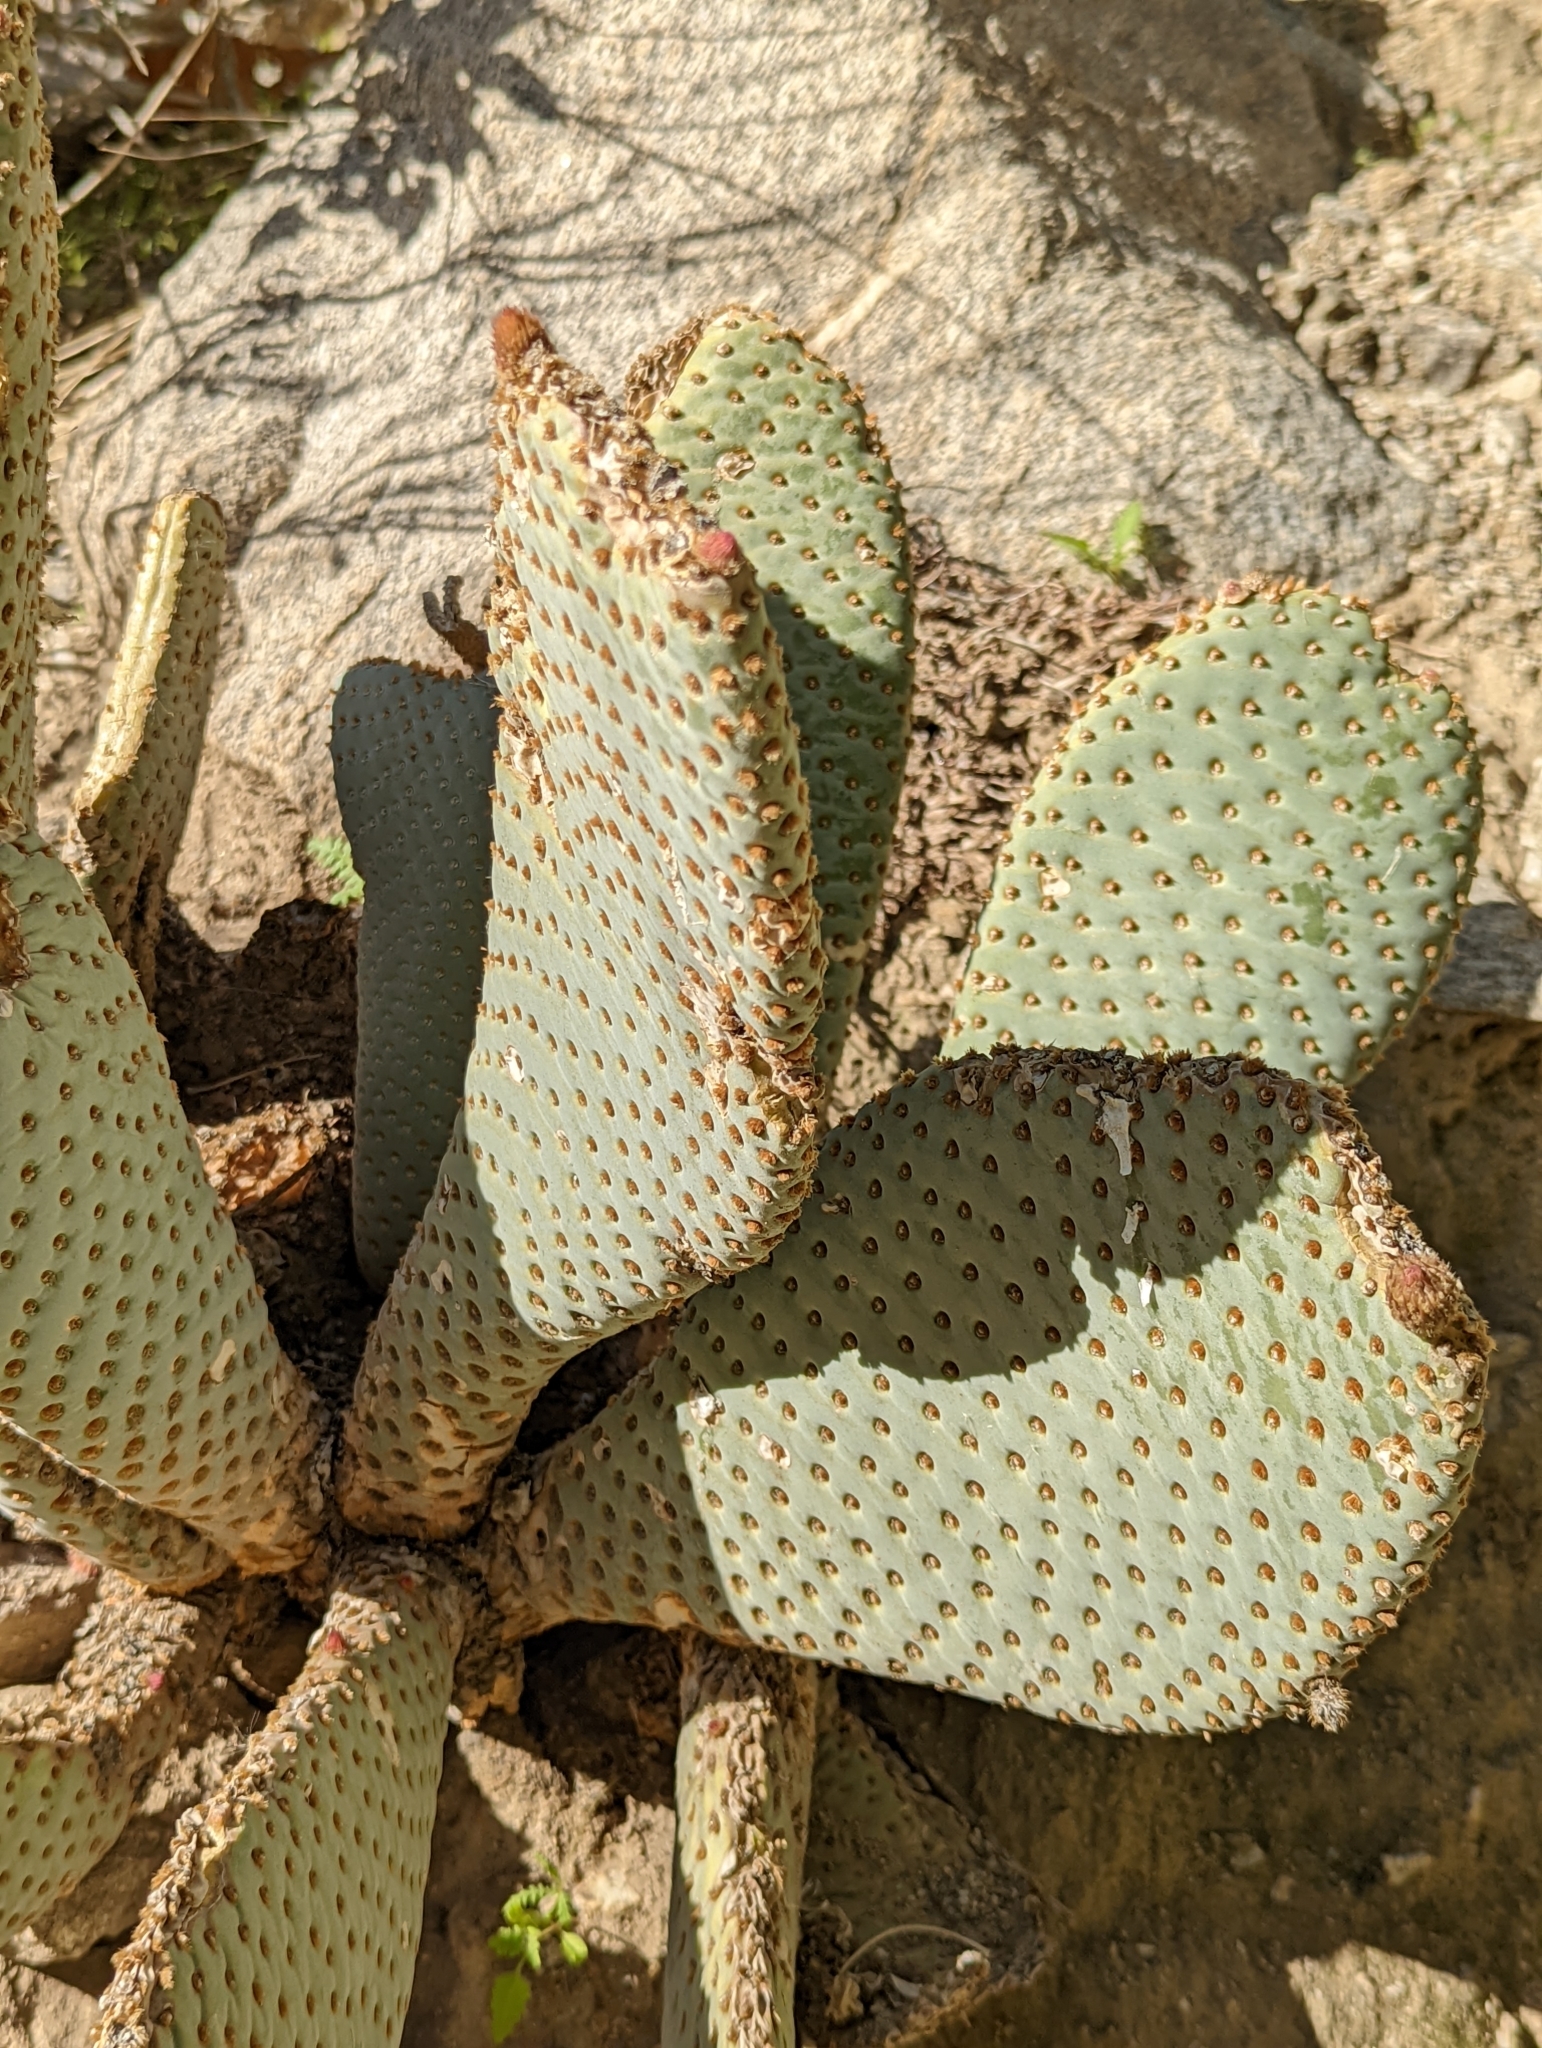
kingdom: Plantae
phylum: Tracheophyta
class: Magnoliopsida
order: Caryophyllales
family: Cactaceae
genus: Opuntia
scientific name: Opuntia basilaris
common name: Beavertail prickly-pear
